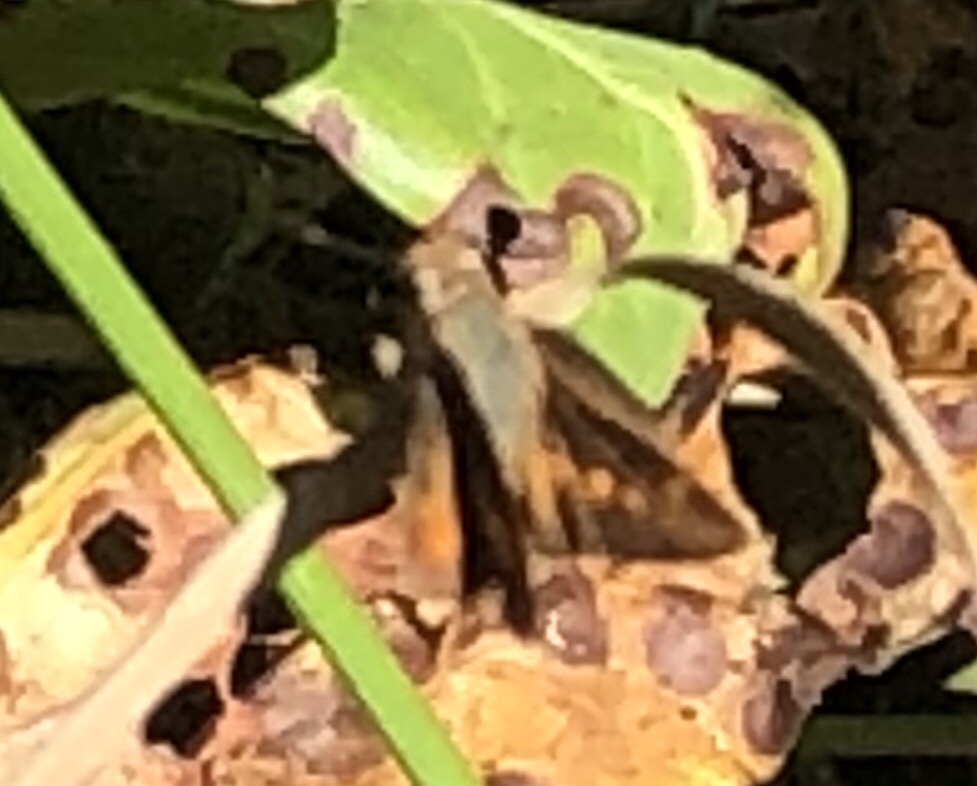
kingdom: Animalia
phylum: Arthropoda
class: Insecta
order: Lepidoptera
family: Hesperiidae
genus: Lon
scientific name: Lon melane
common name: Umber skipper
